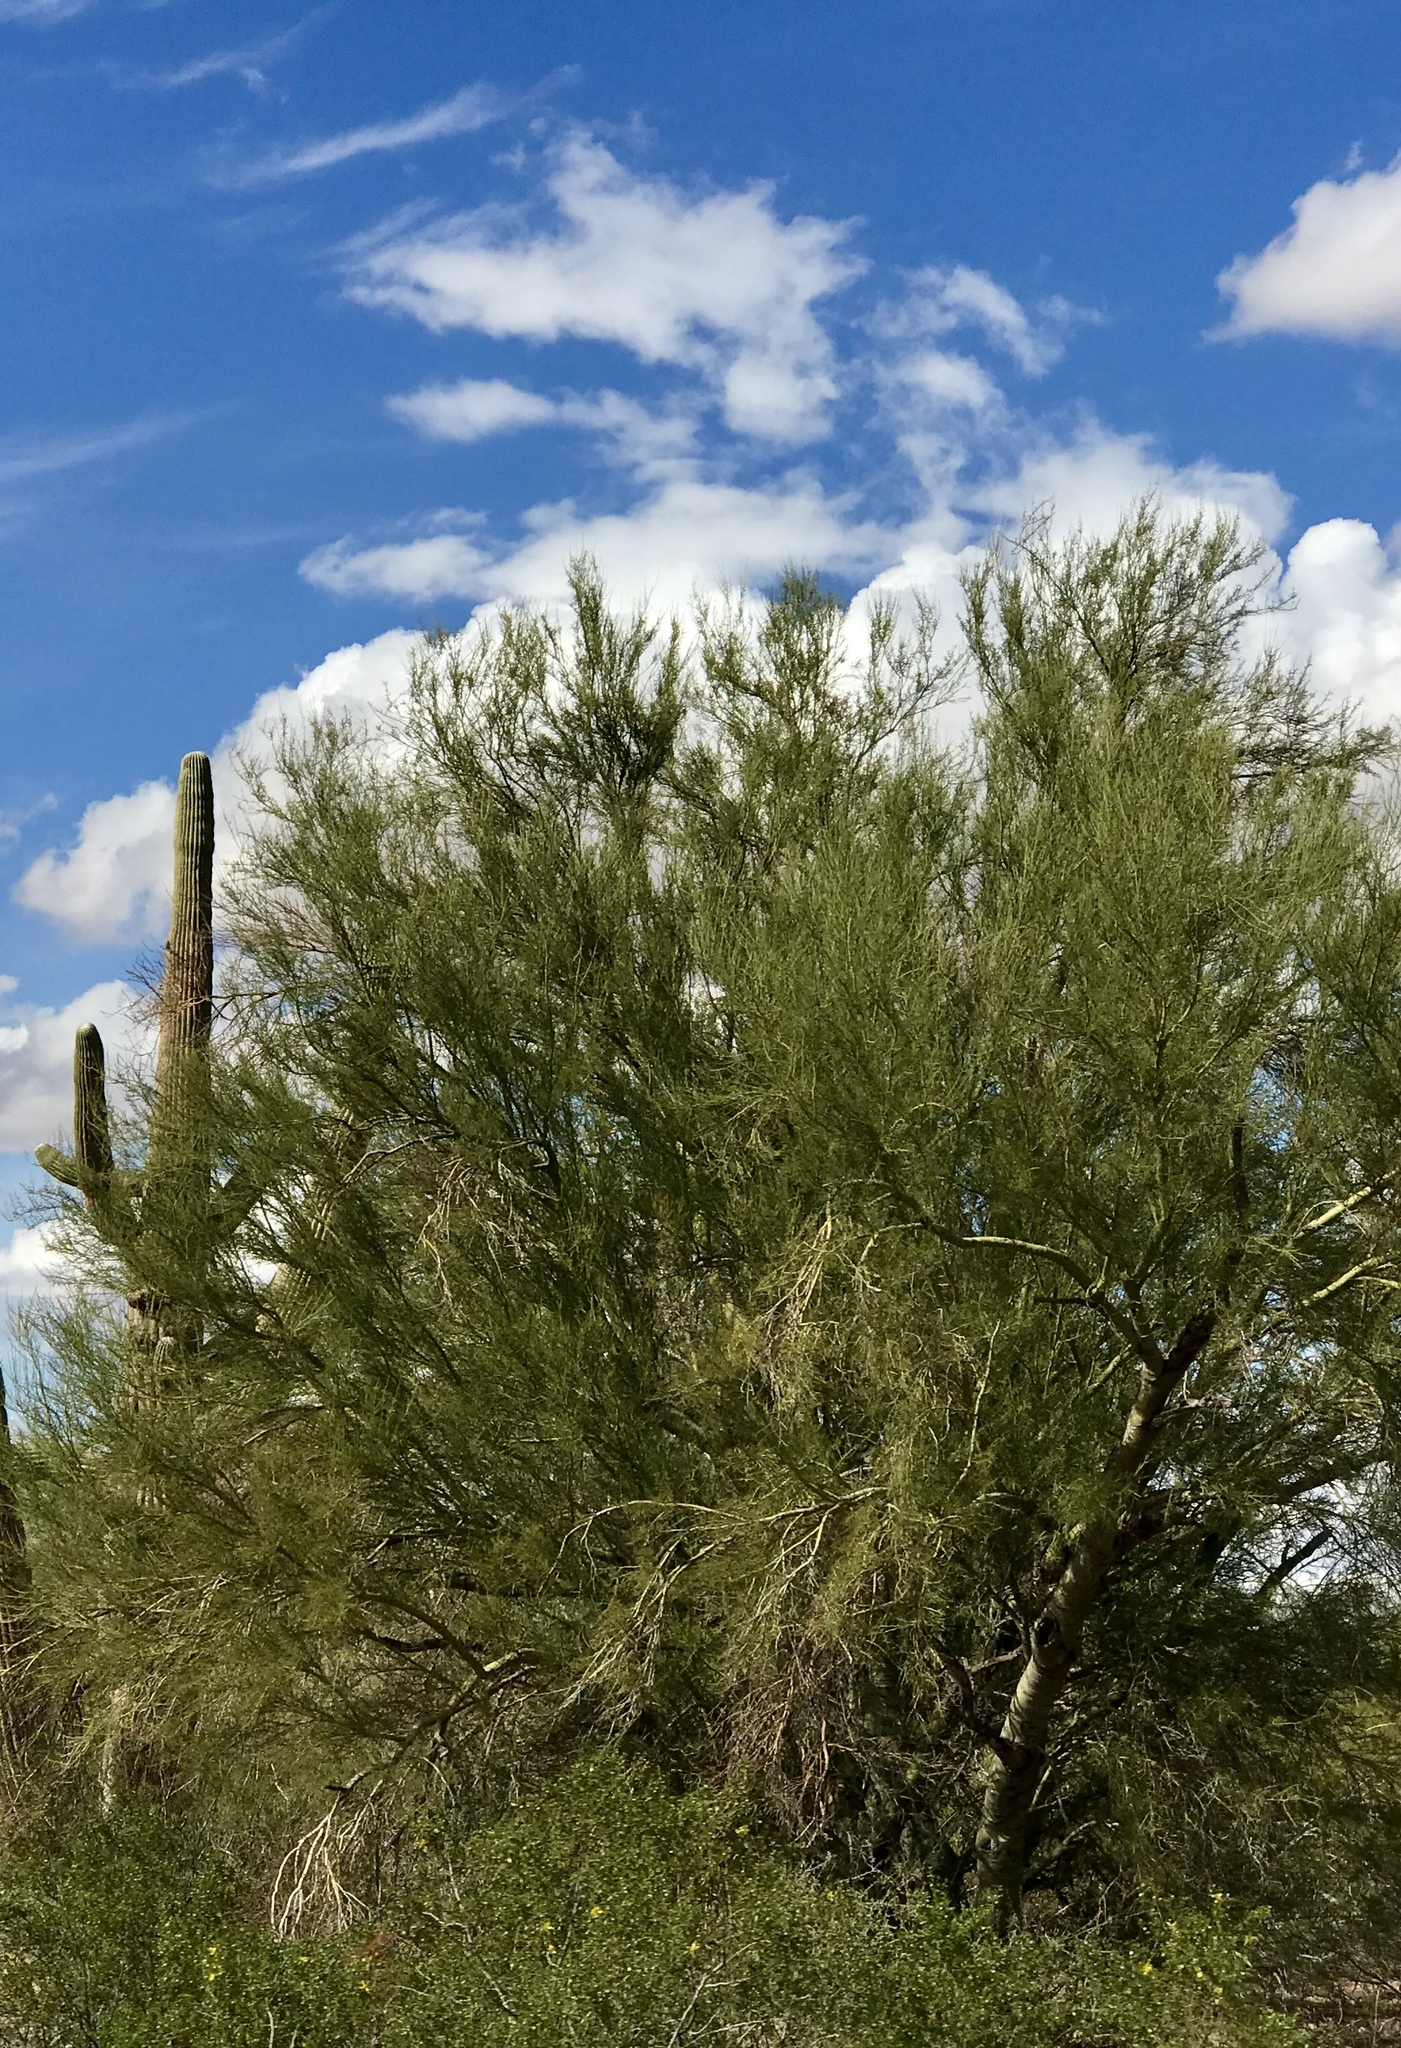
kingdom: Plantae
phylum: Tracheophyta
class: Magnoliopsida
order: Fabales
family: Fabaceae
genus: Parkinsonia
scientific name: Parkinsonia microphylla
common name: Yellow paloverde
